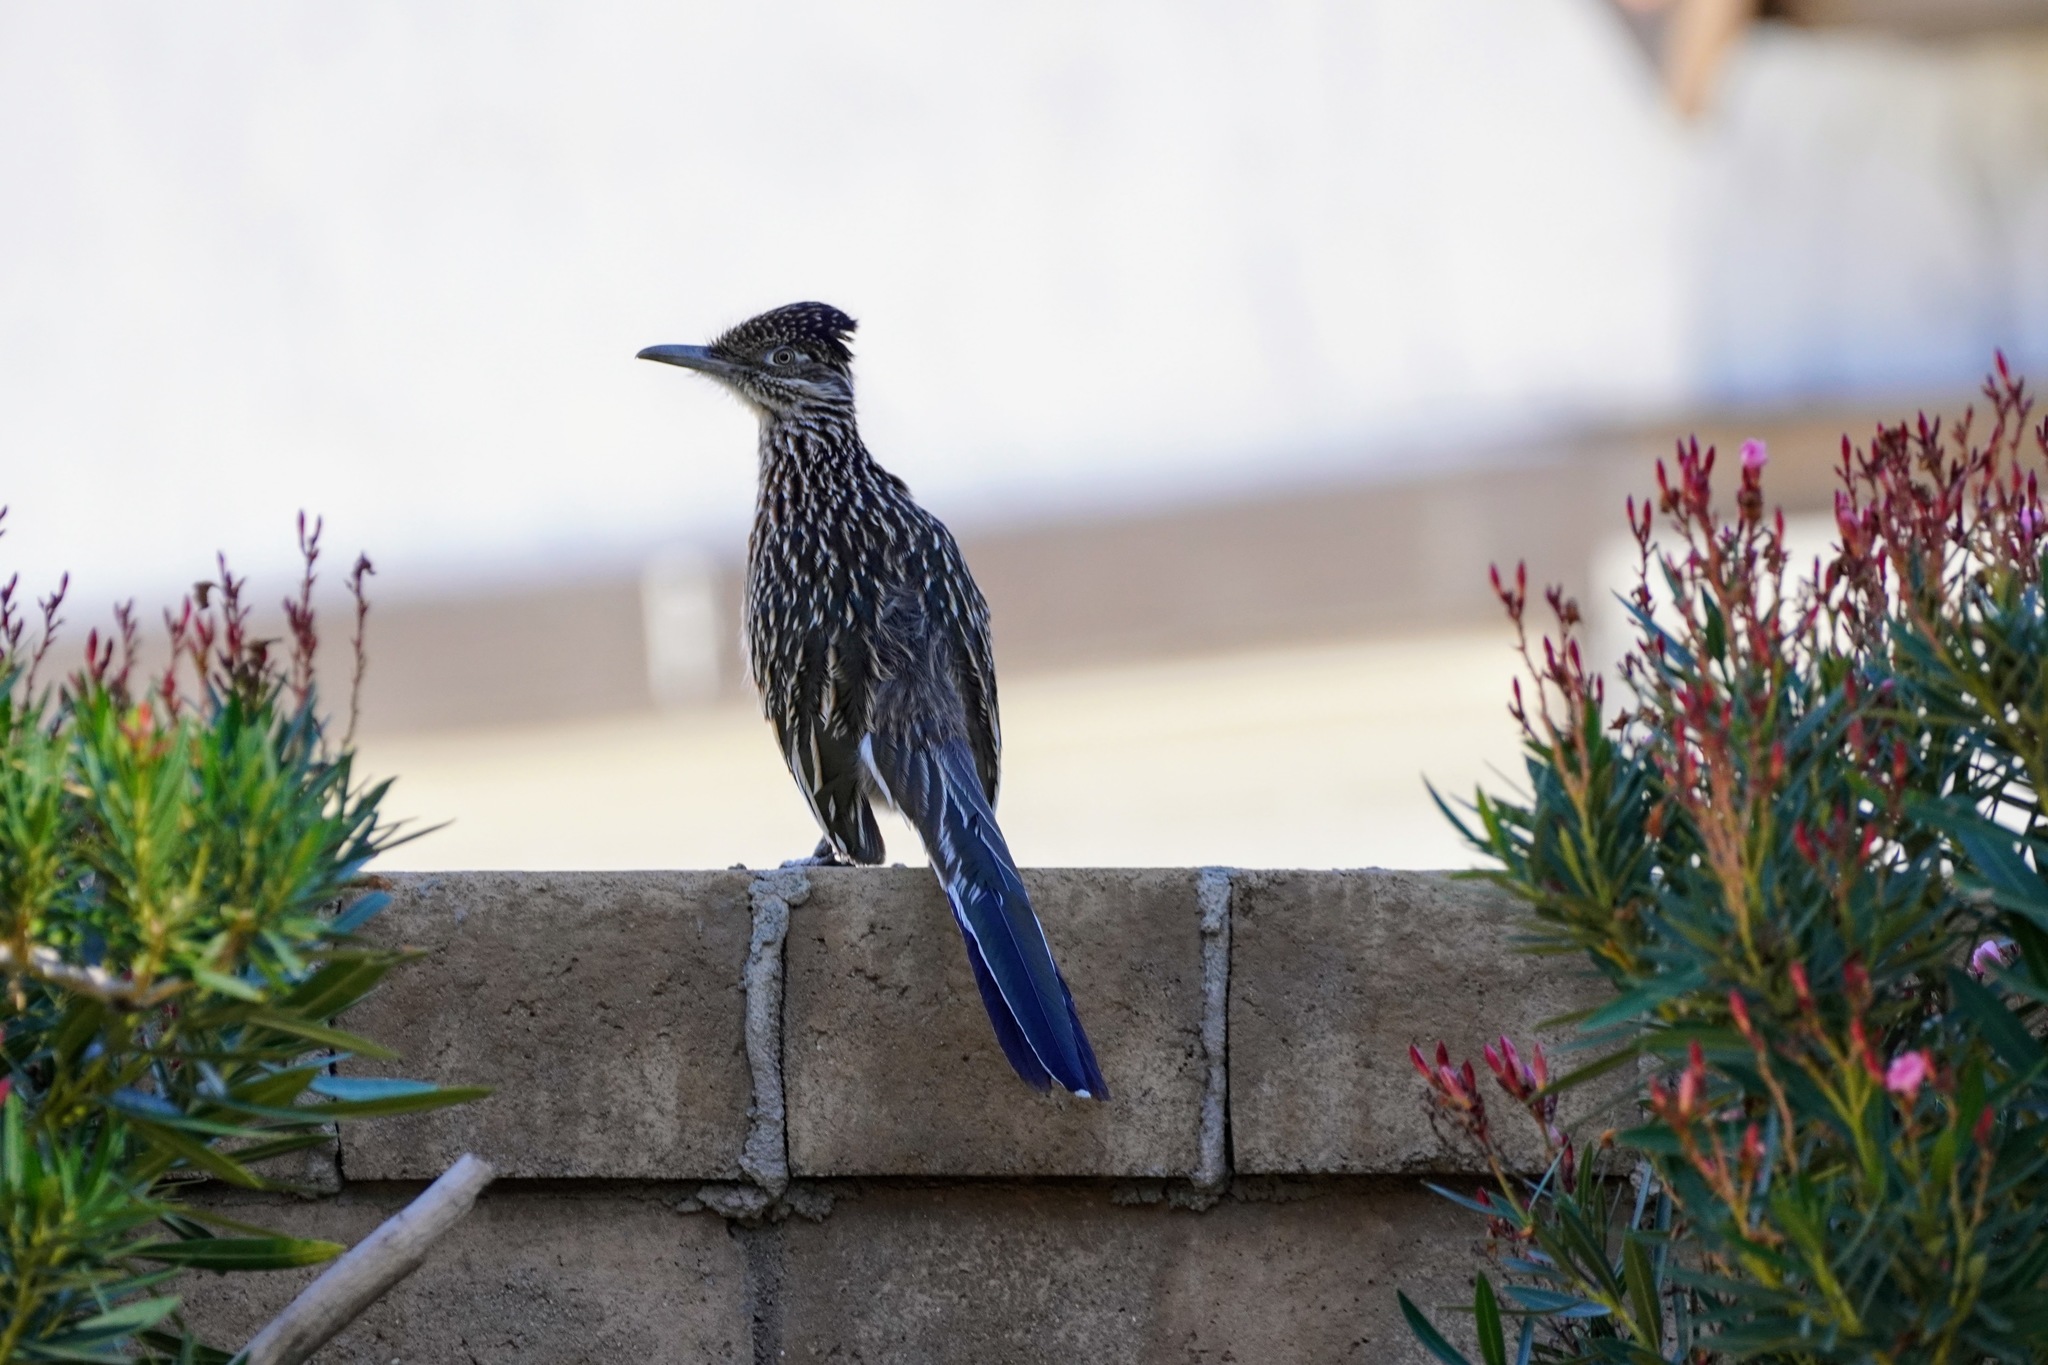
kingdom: Animalia
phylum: Chordata
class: Aves
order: Cuculiformes
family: Cuculidae
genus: Geococcyx
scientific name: Geococcyx californianus
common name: Greater roadrunner
